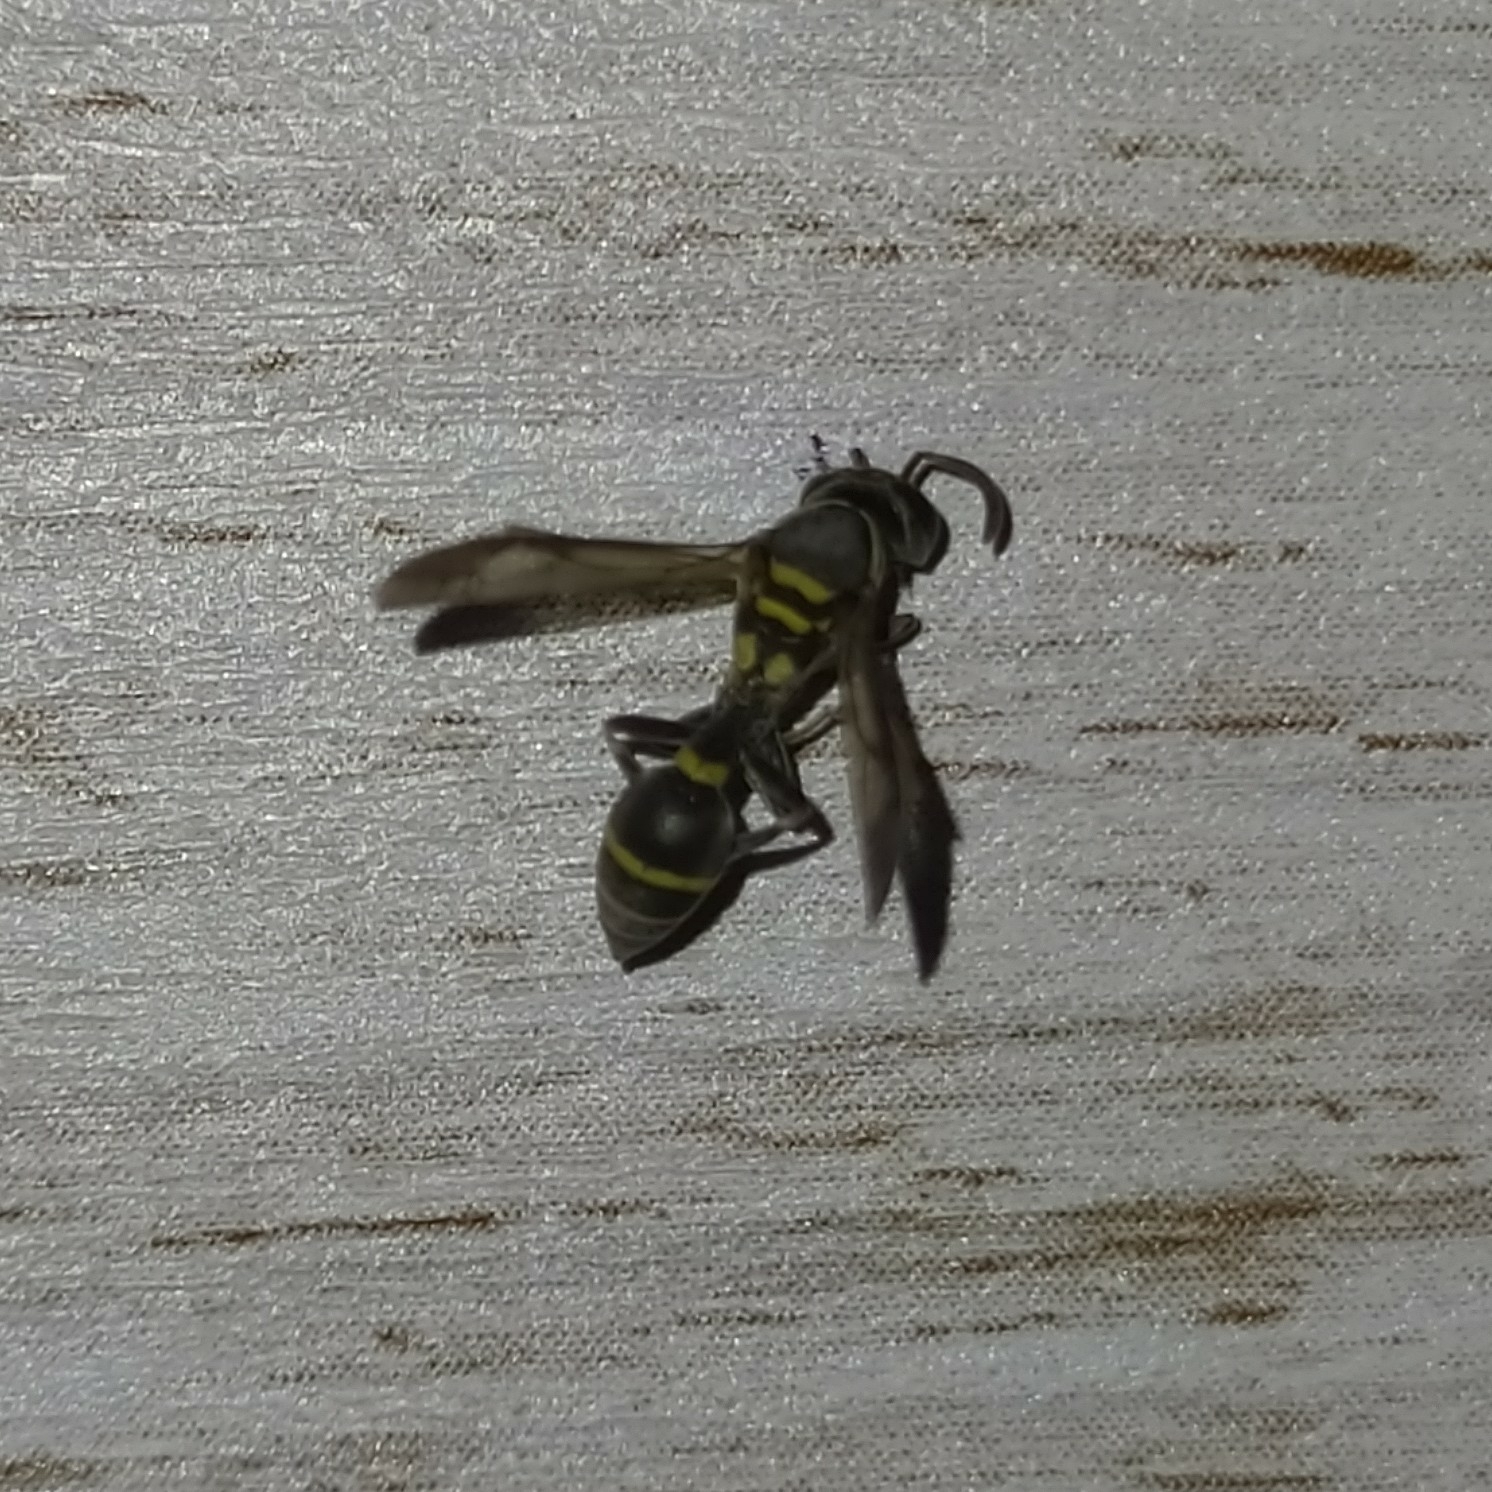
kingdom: Animalia
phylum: Arthropoda
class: Insecta
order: Hymenoptera
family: Eumenidae
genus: Polybia
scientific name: Polybia occidentalis
